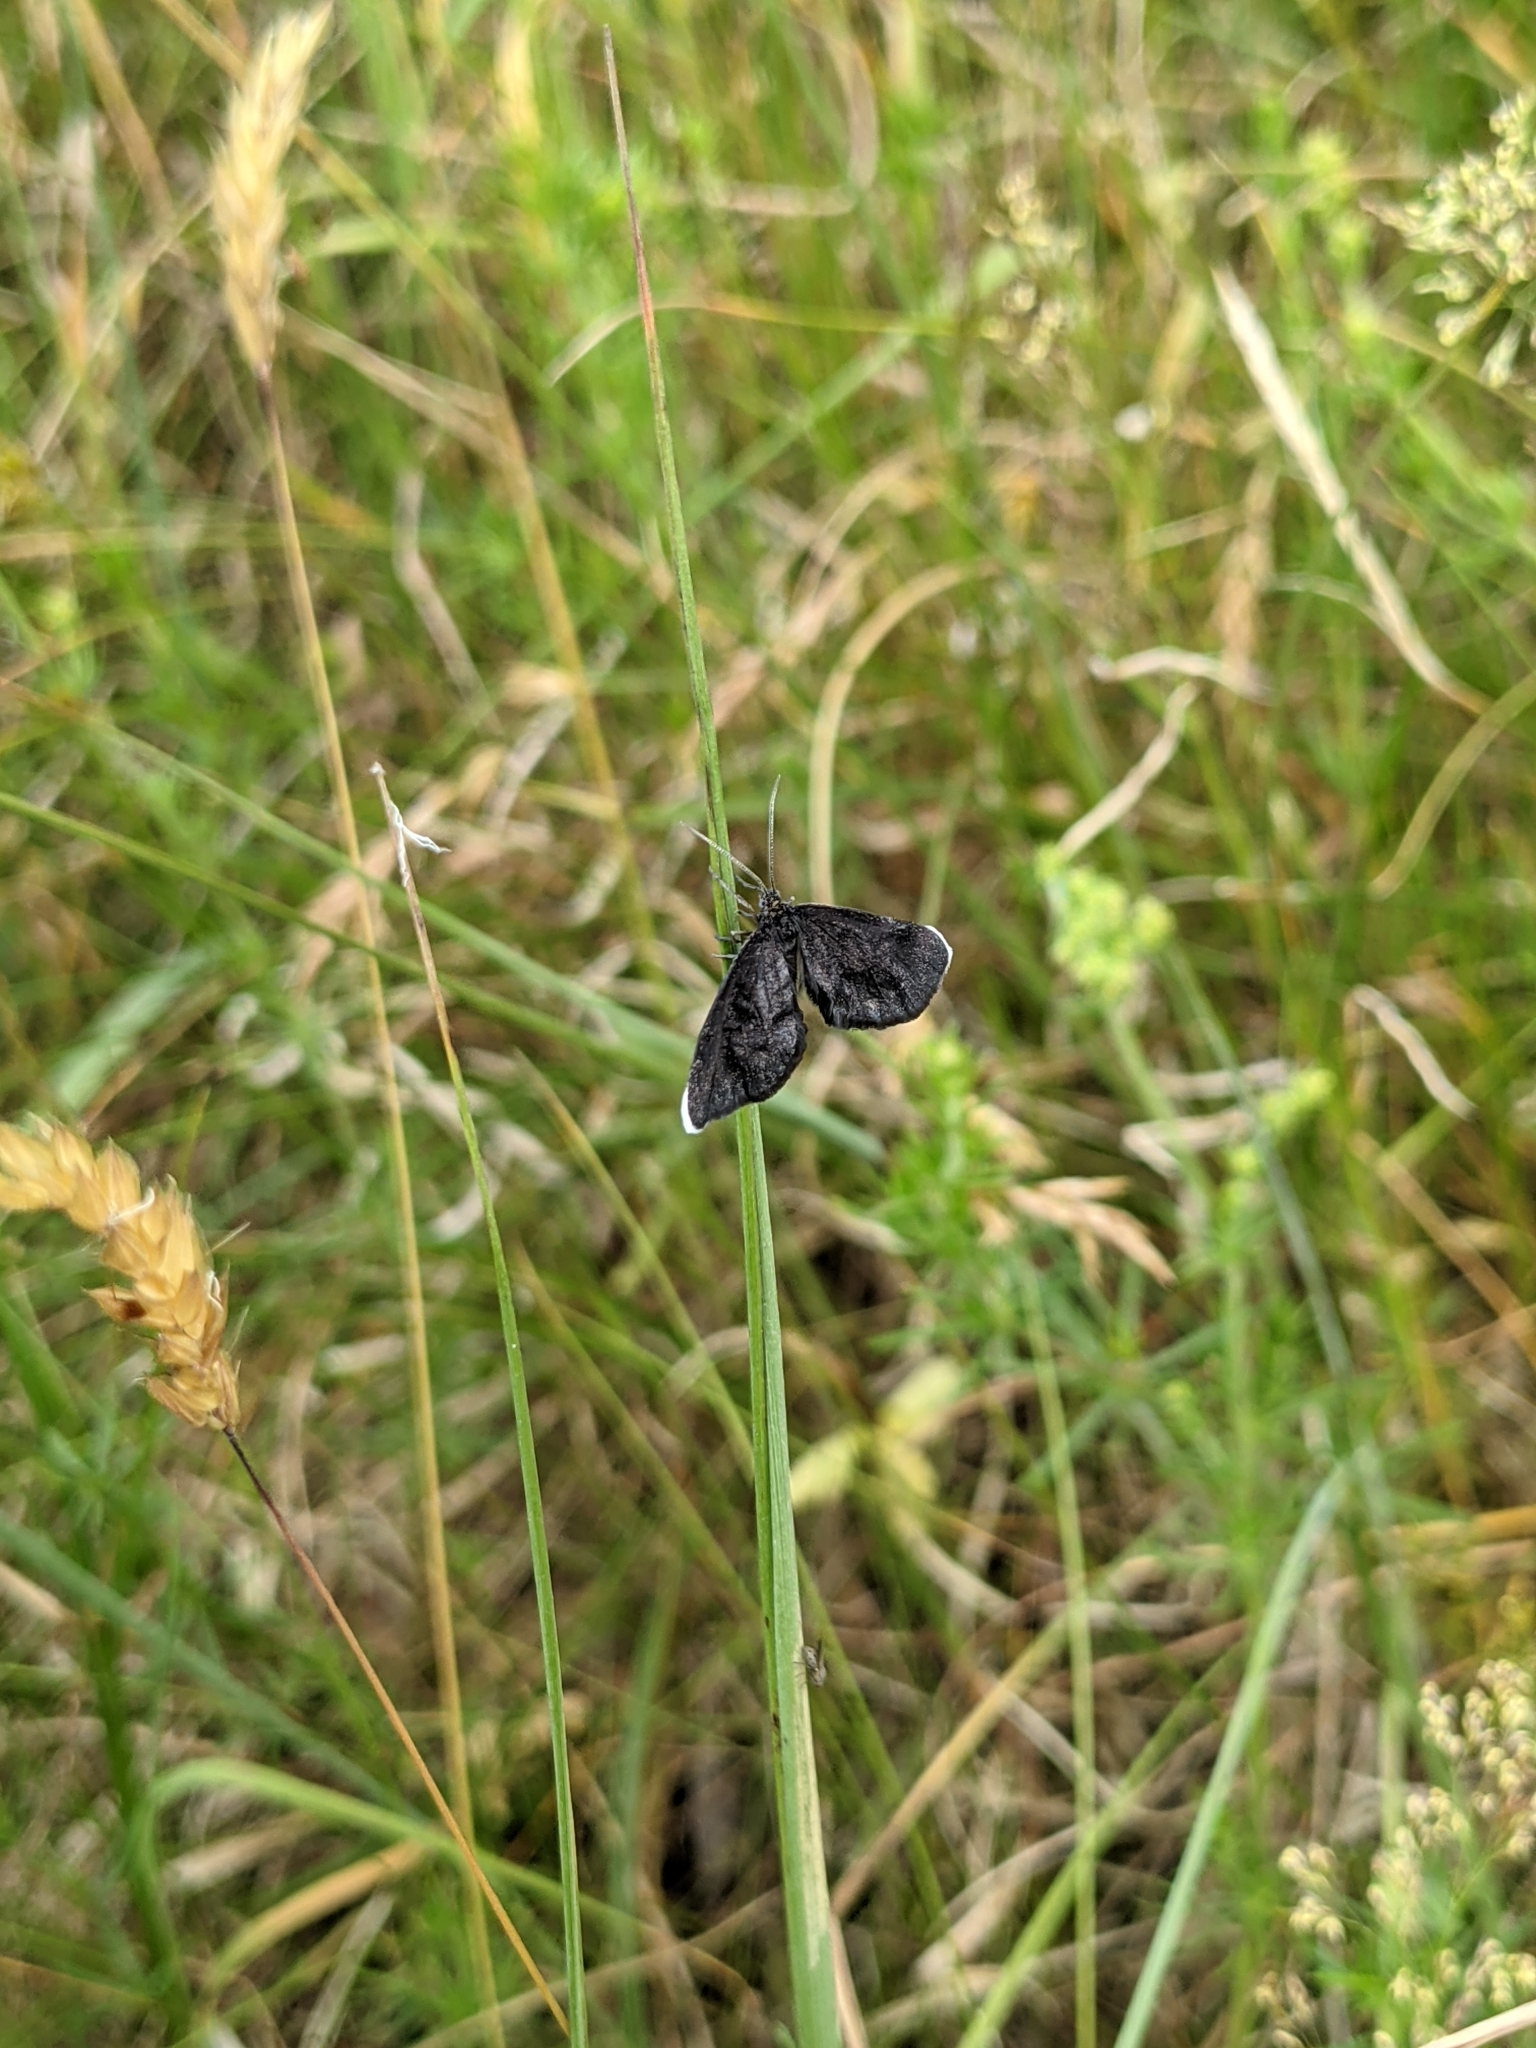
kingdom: Animalia
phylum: Arthropoda
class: Insecta
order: Lepidoptera
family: Geometridae
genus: Odezia
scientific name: Odezia atrata
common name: Chimney sweeper
